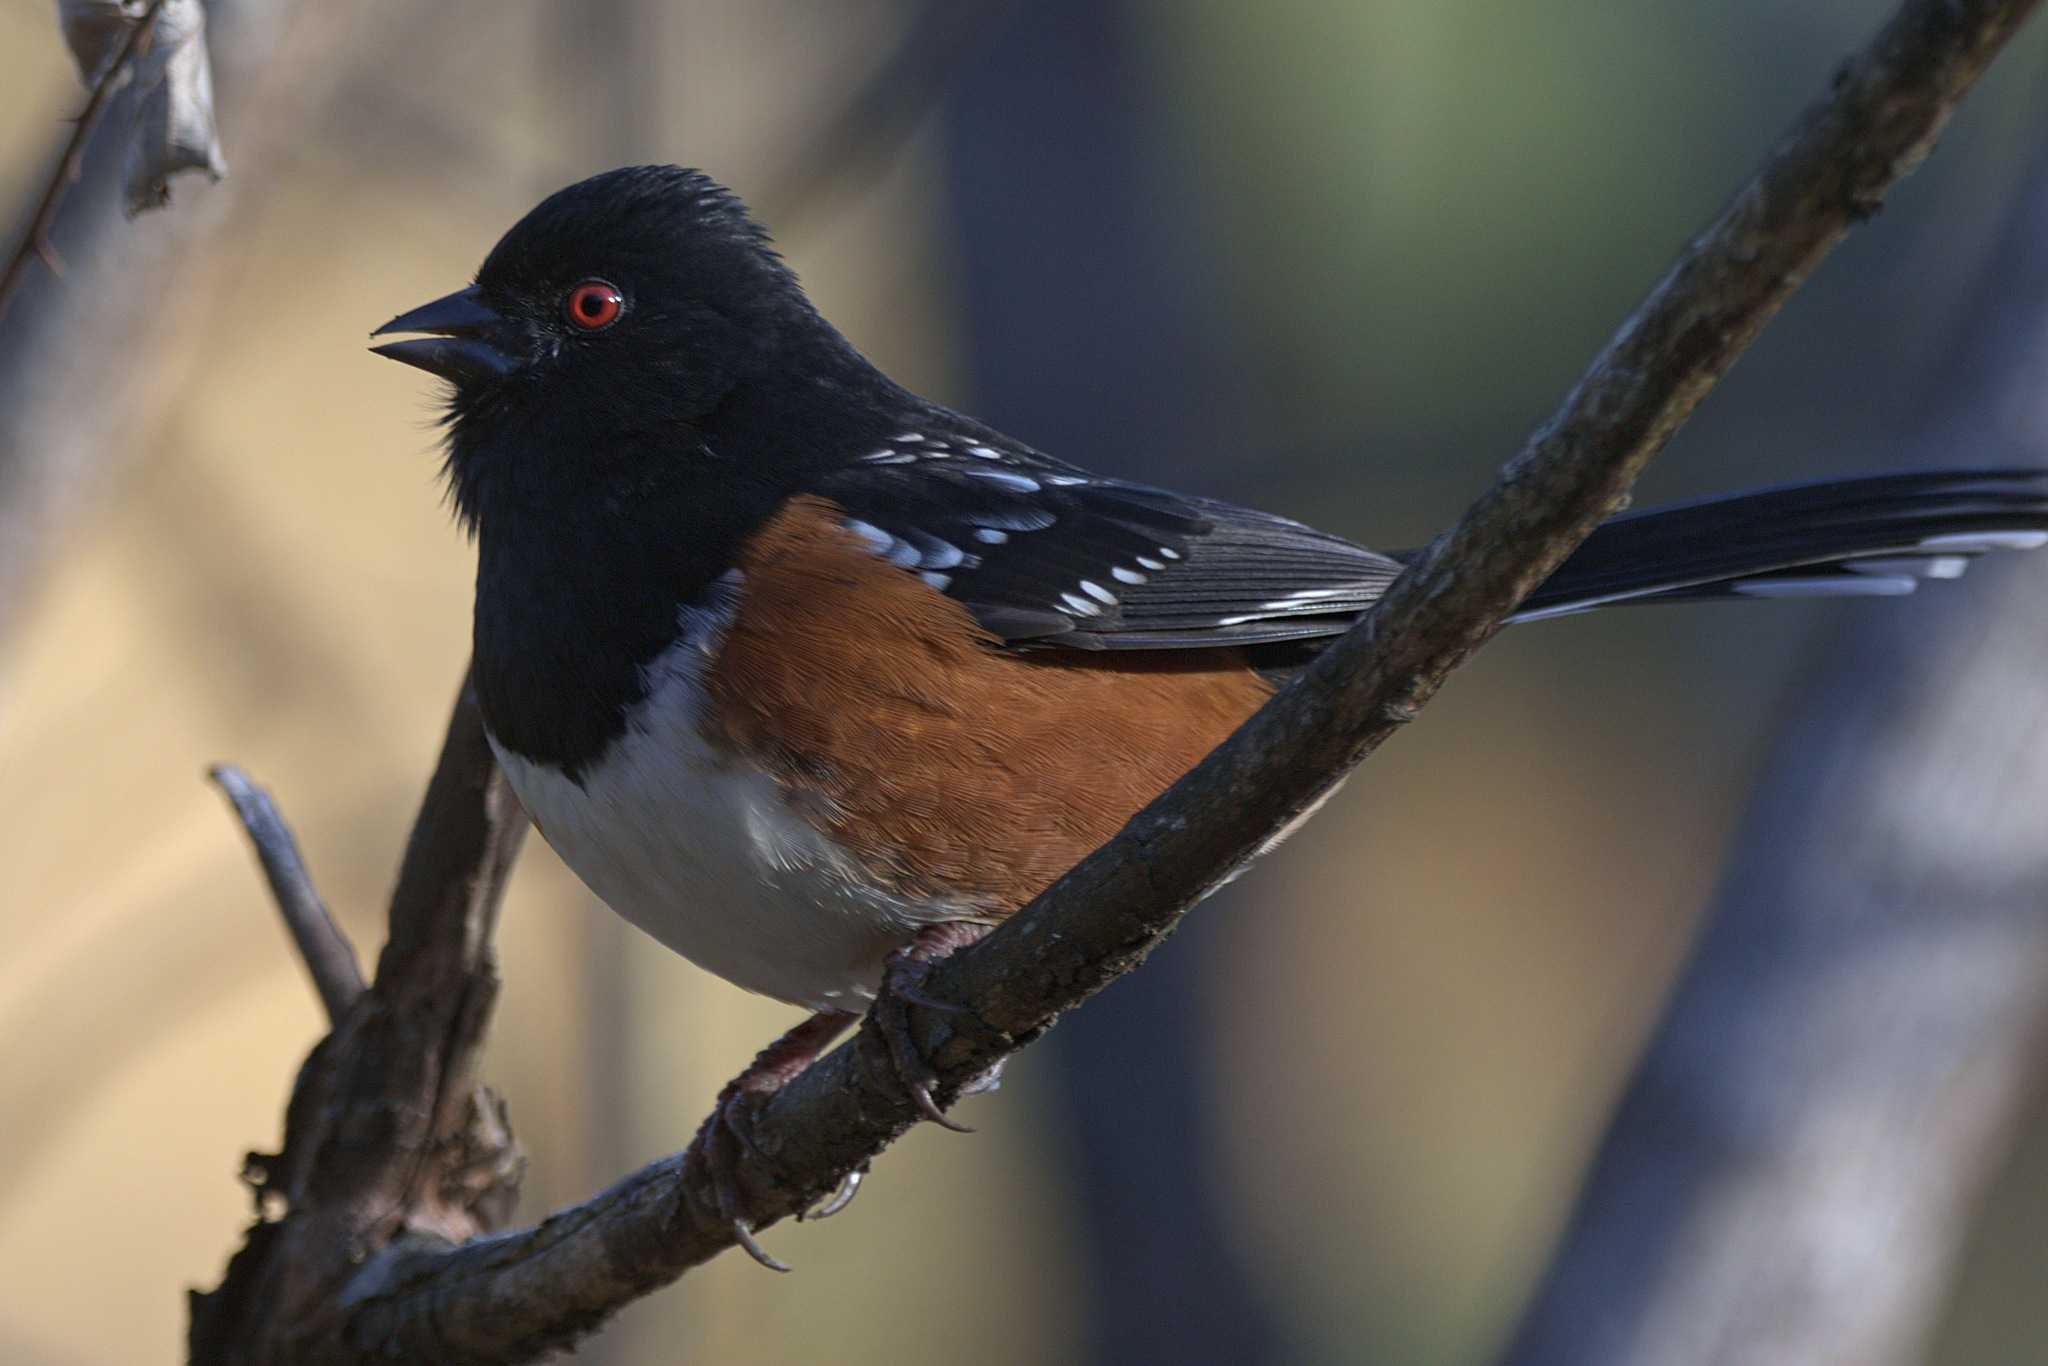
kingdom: Animalia
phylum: Chordata
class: Aves
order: Passeriformes
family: Passerellidae
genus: Pipilo
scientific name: Pipilo maculatus
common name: Spotted towhee
